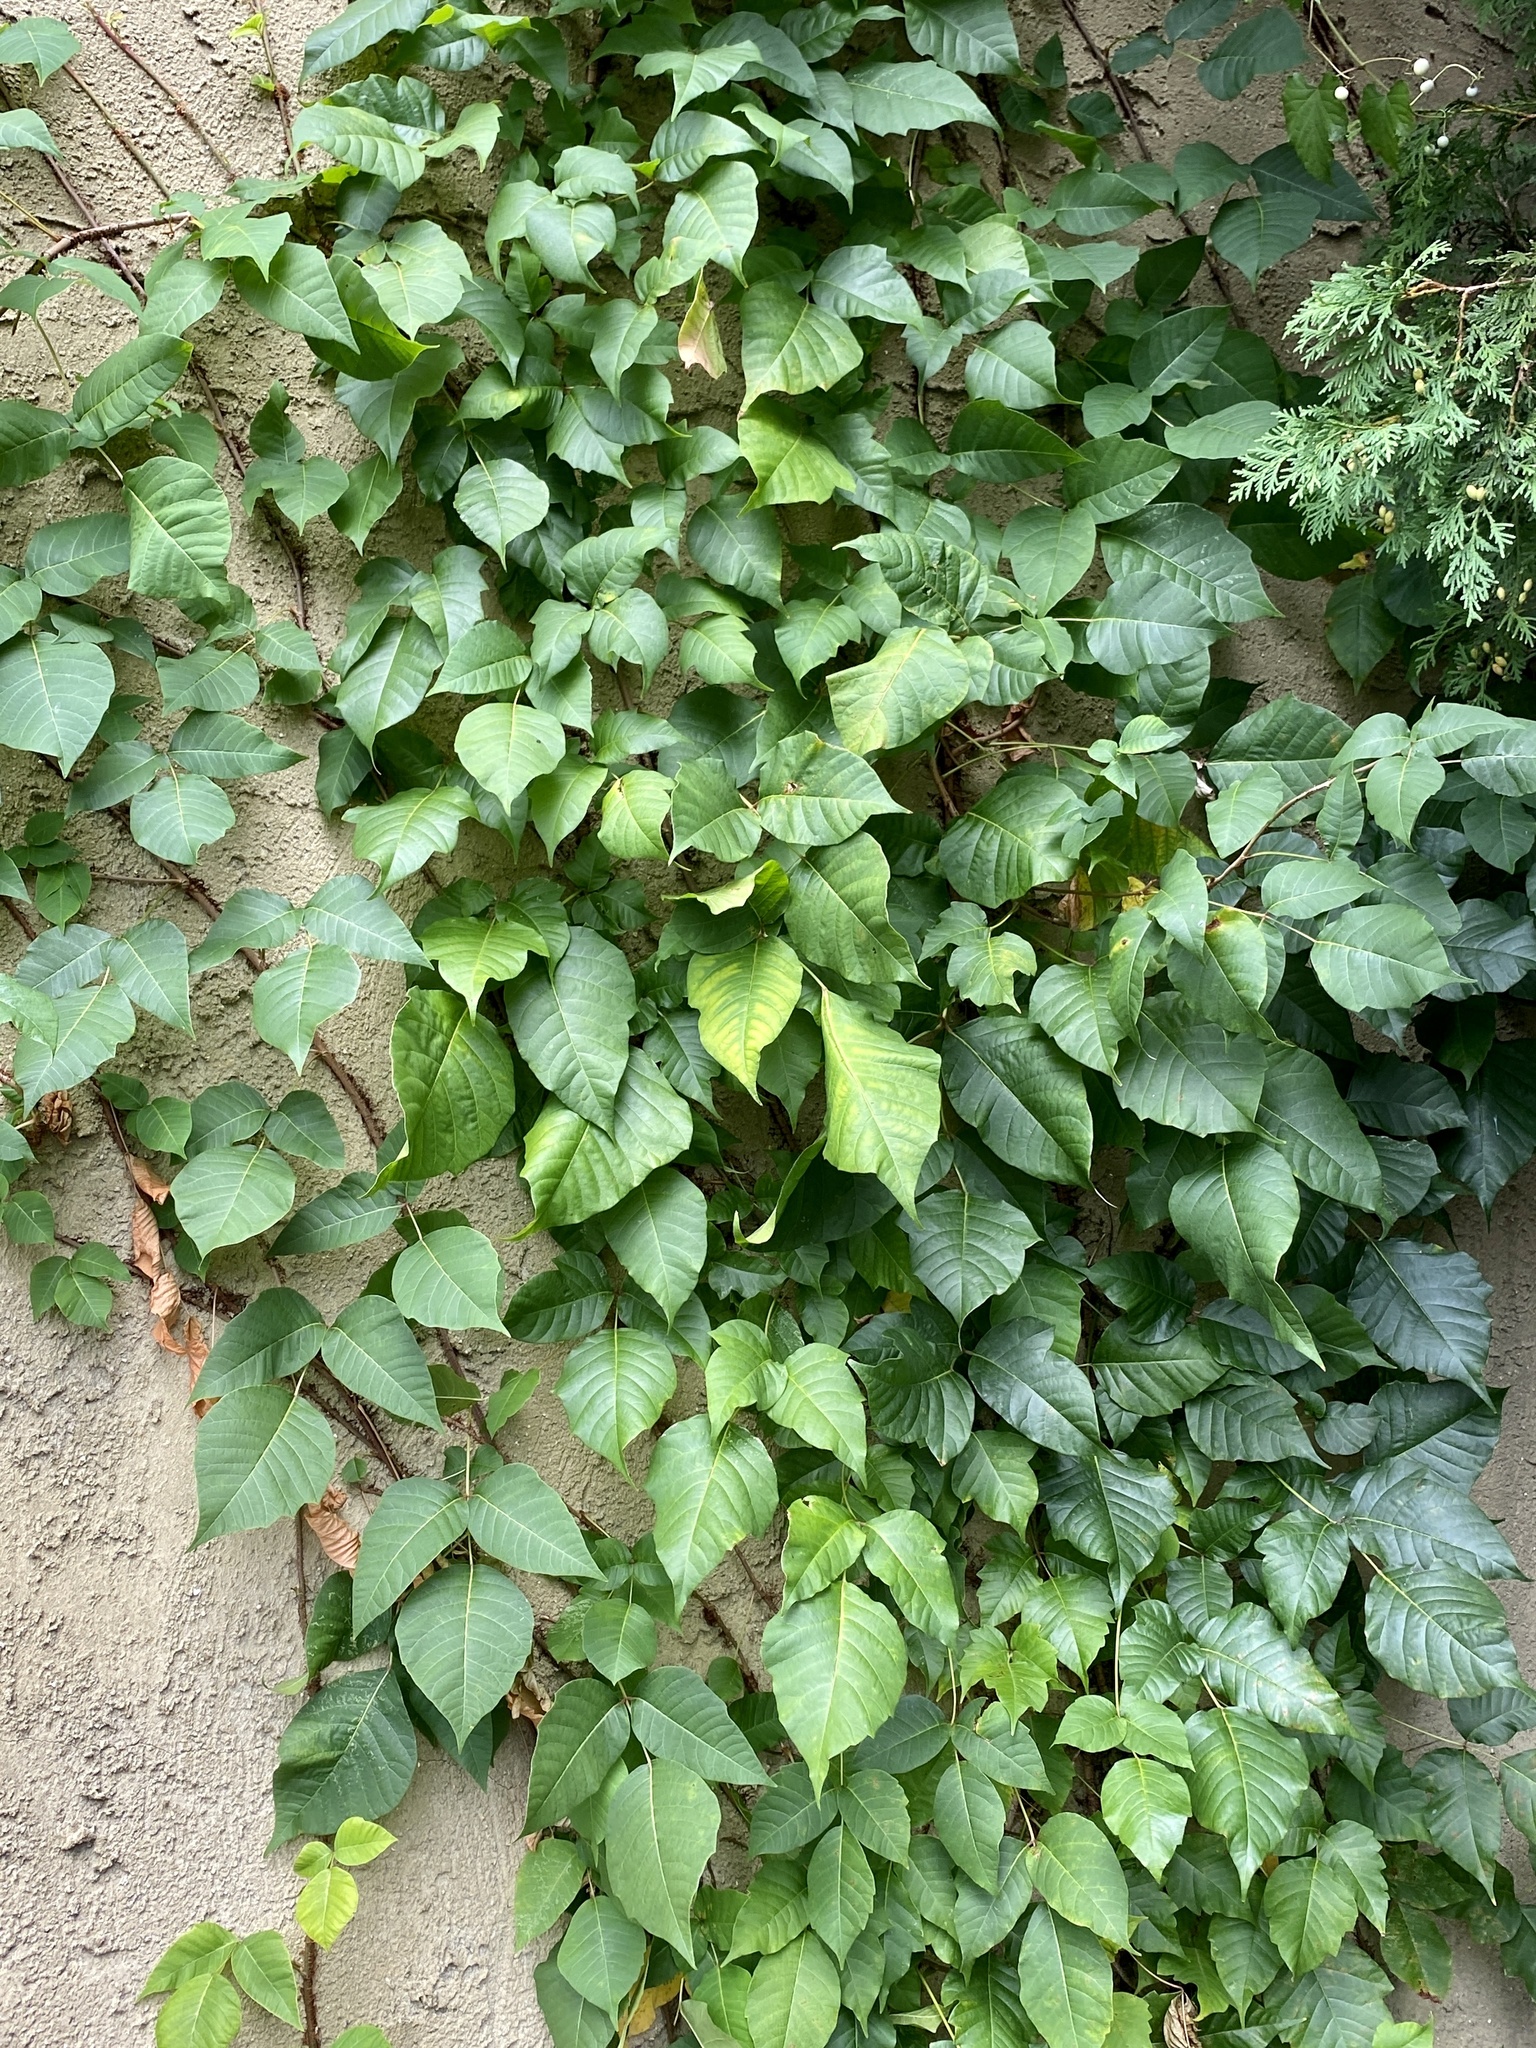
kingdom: Plantae
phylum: Tracheophyta
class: Magnoliopsida
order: Sapindales
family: Anacardiaceae
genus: Toxicodendron
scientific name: Toxicodendron radicans
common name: Poison ivy
